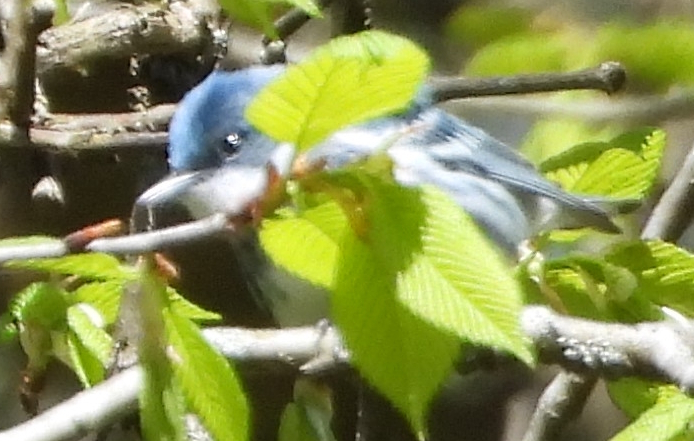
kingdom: Animalia
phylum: Chordata
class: Aves
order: Passeriformes
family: Parulidae
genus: Setophaga
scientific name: Setophaga cerulea
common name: Cerulean warbler
